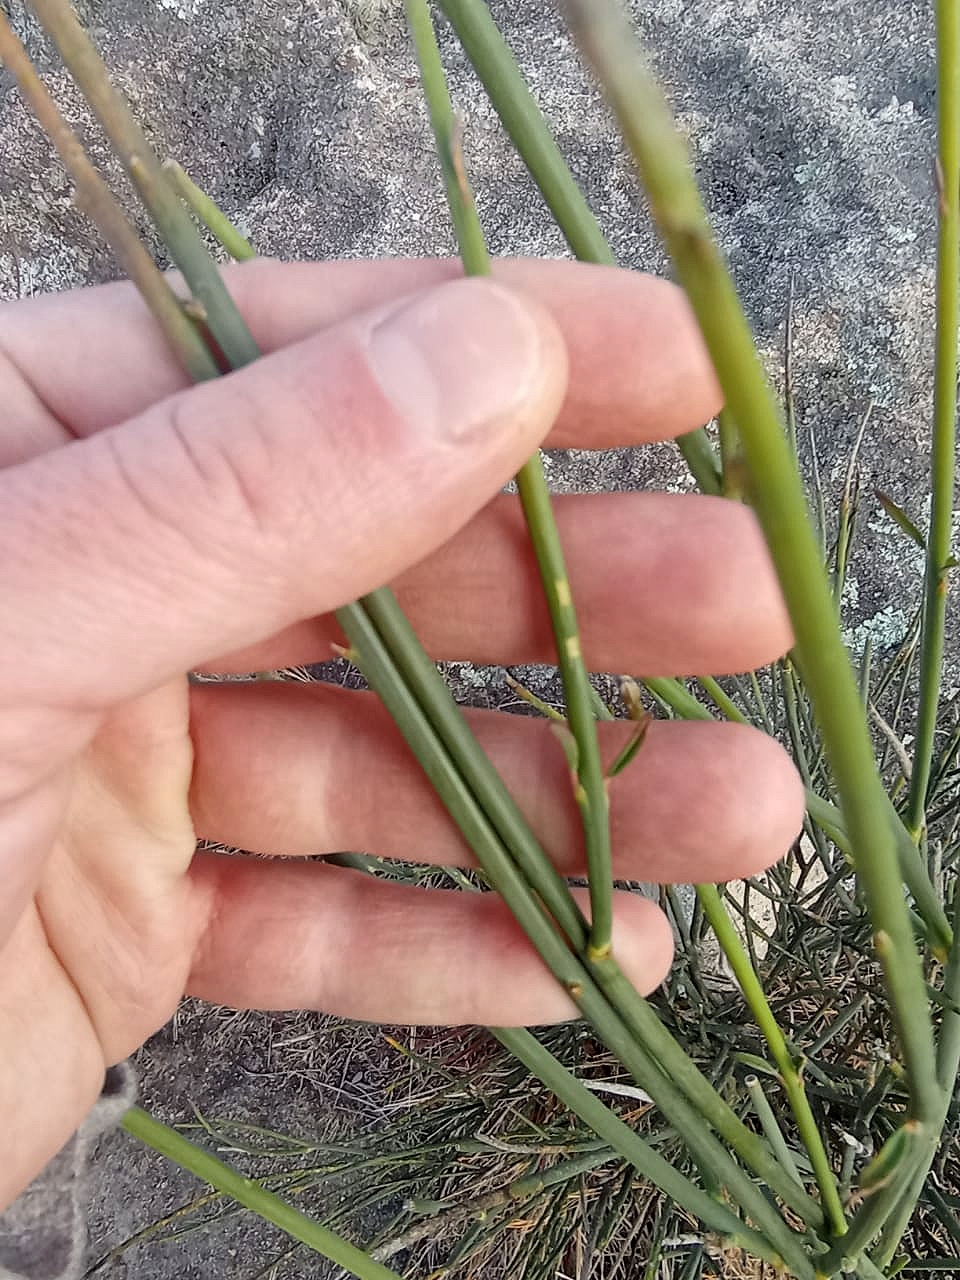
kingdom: Plantae
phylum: Tracheophyta
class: Magnoliopsida
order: Fabales
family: Fabaceae
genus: Spartium
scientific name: Spartium junceum
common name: Spanish broom
